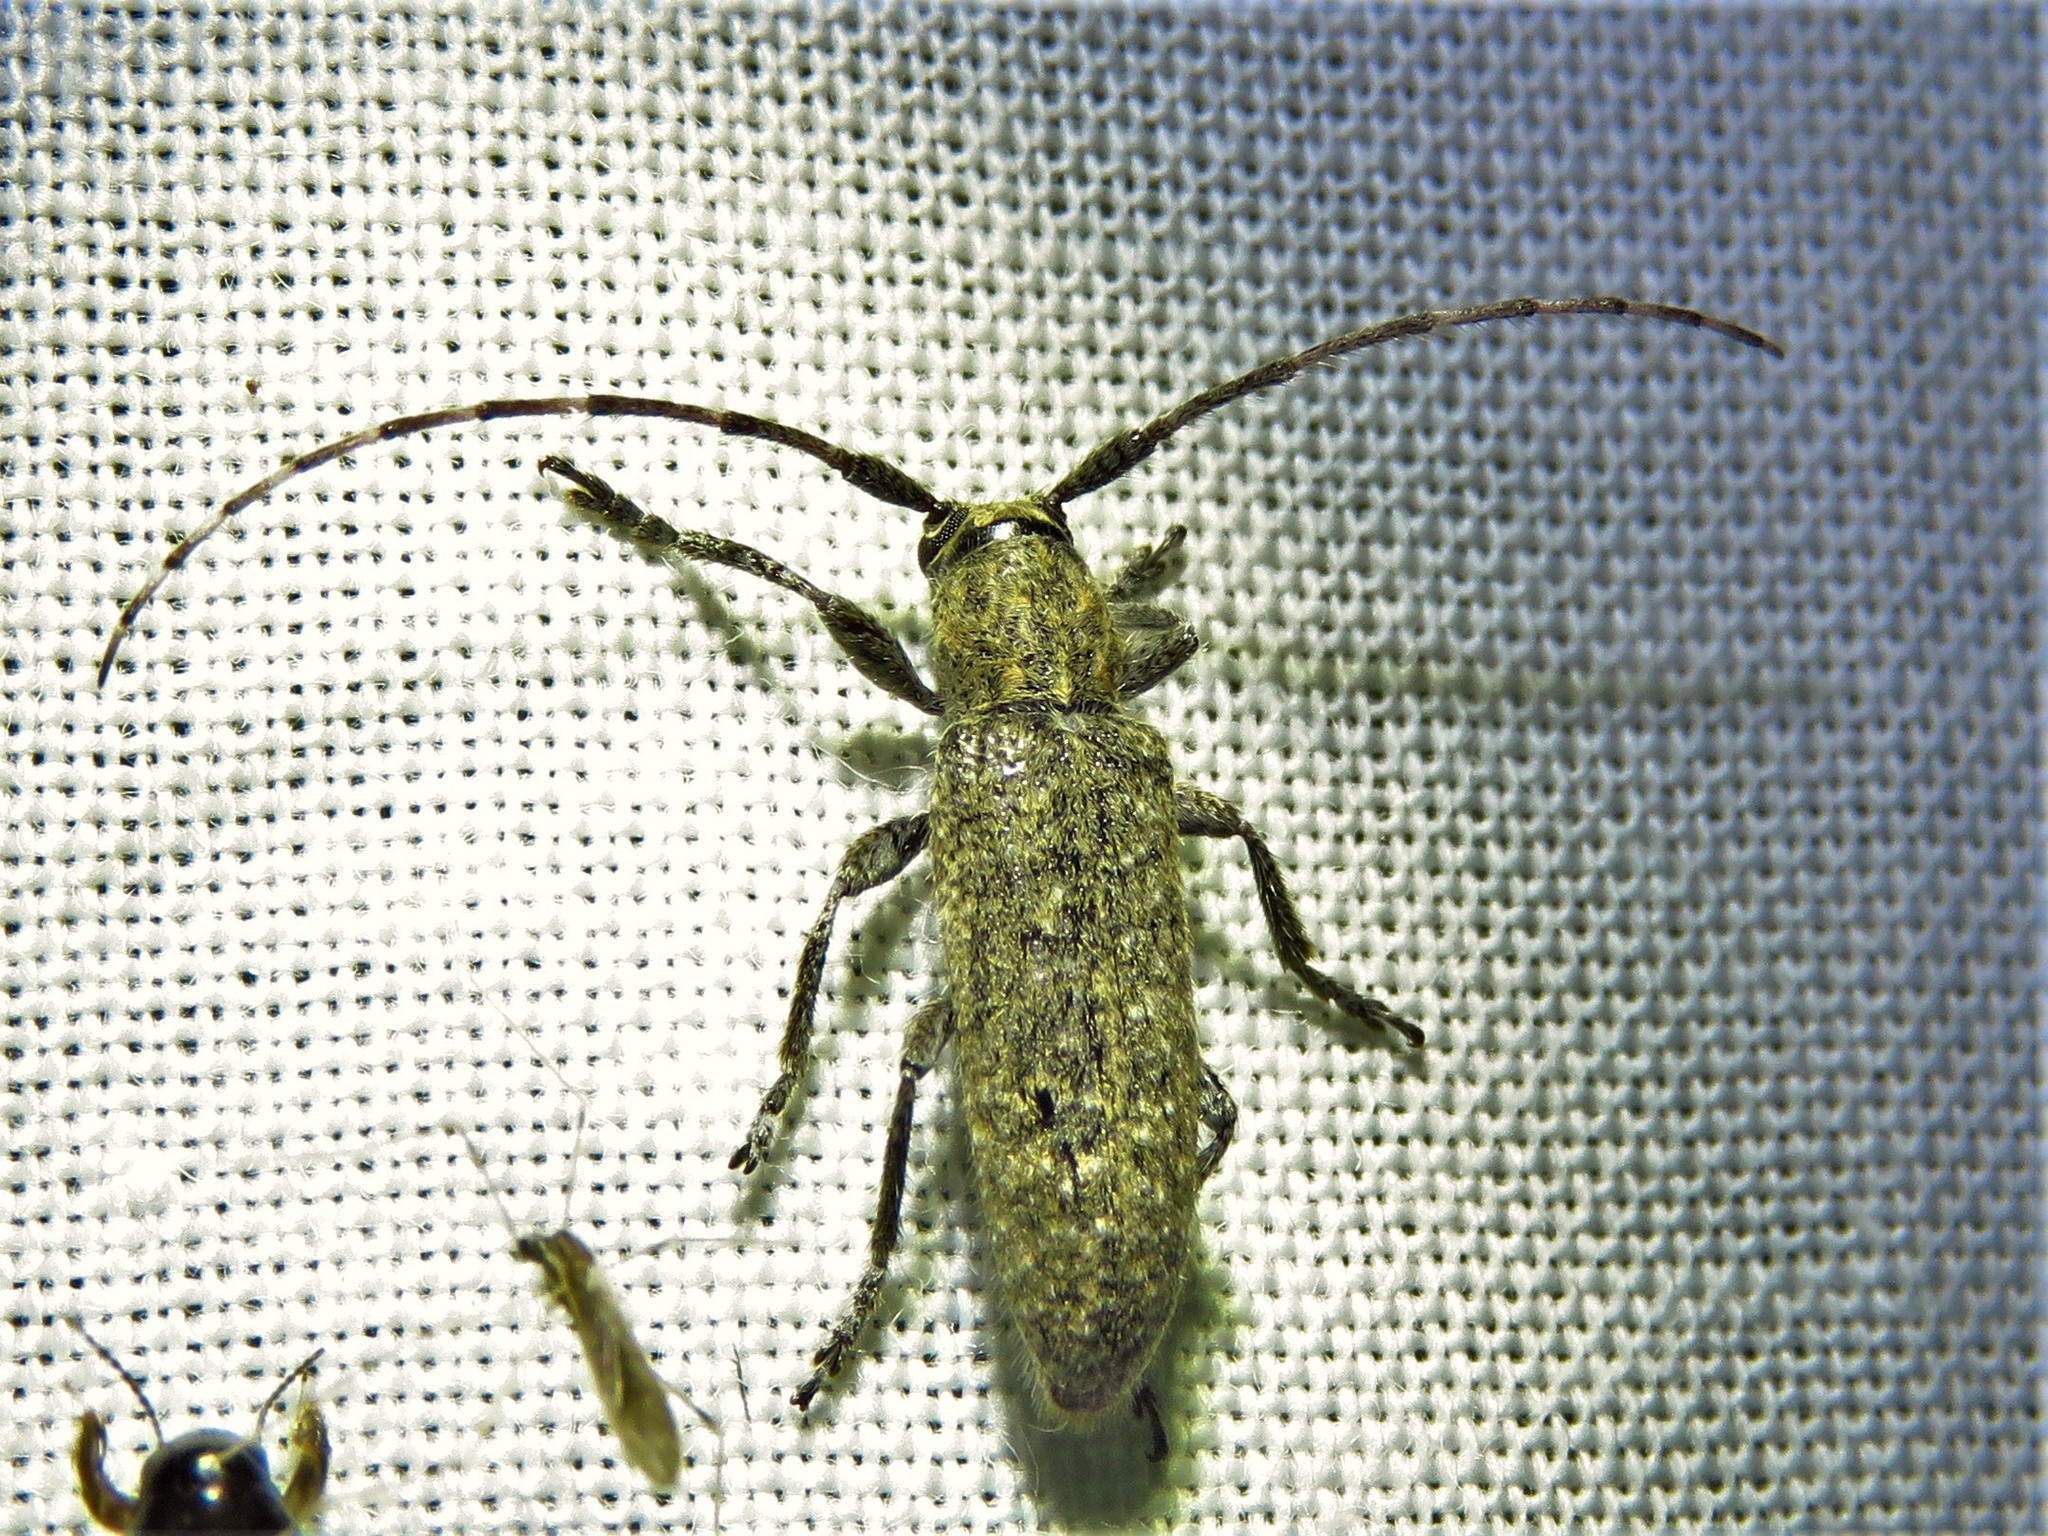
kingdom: Animalia
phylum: Arthropoda
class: Insecta
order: Coleoptera
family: Cerambycidae
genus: Ataxia
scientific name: Ataxia hubbardi
